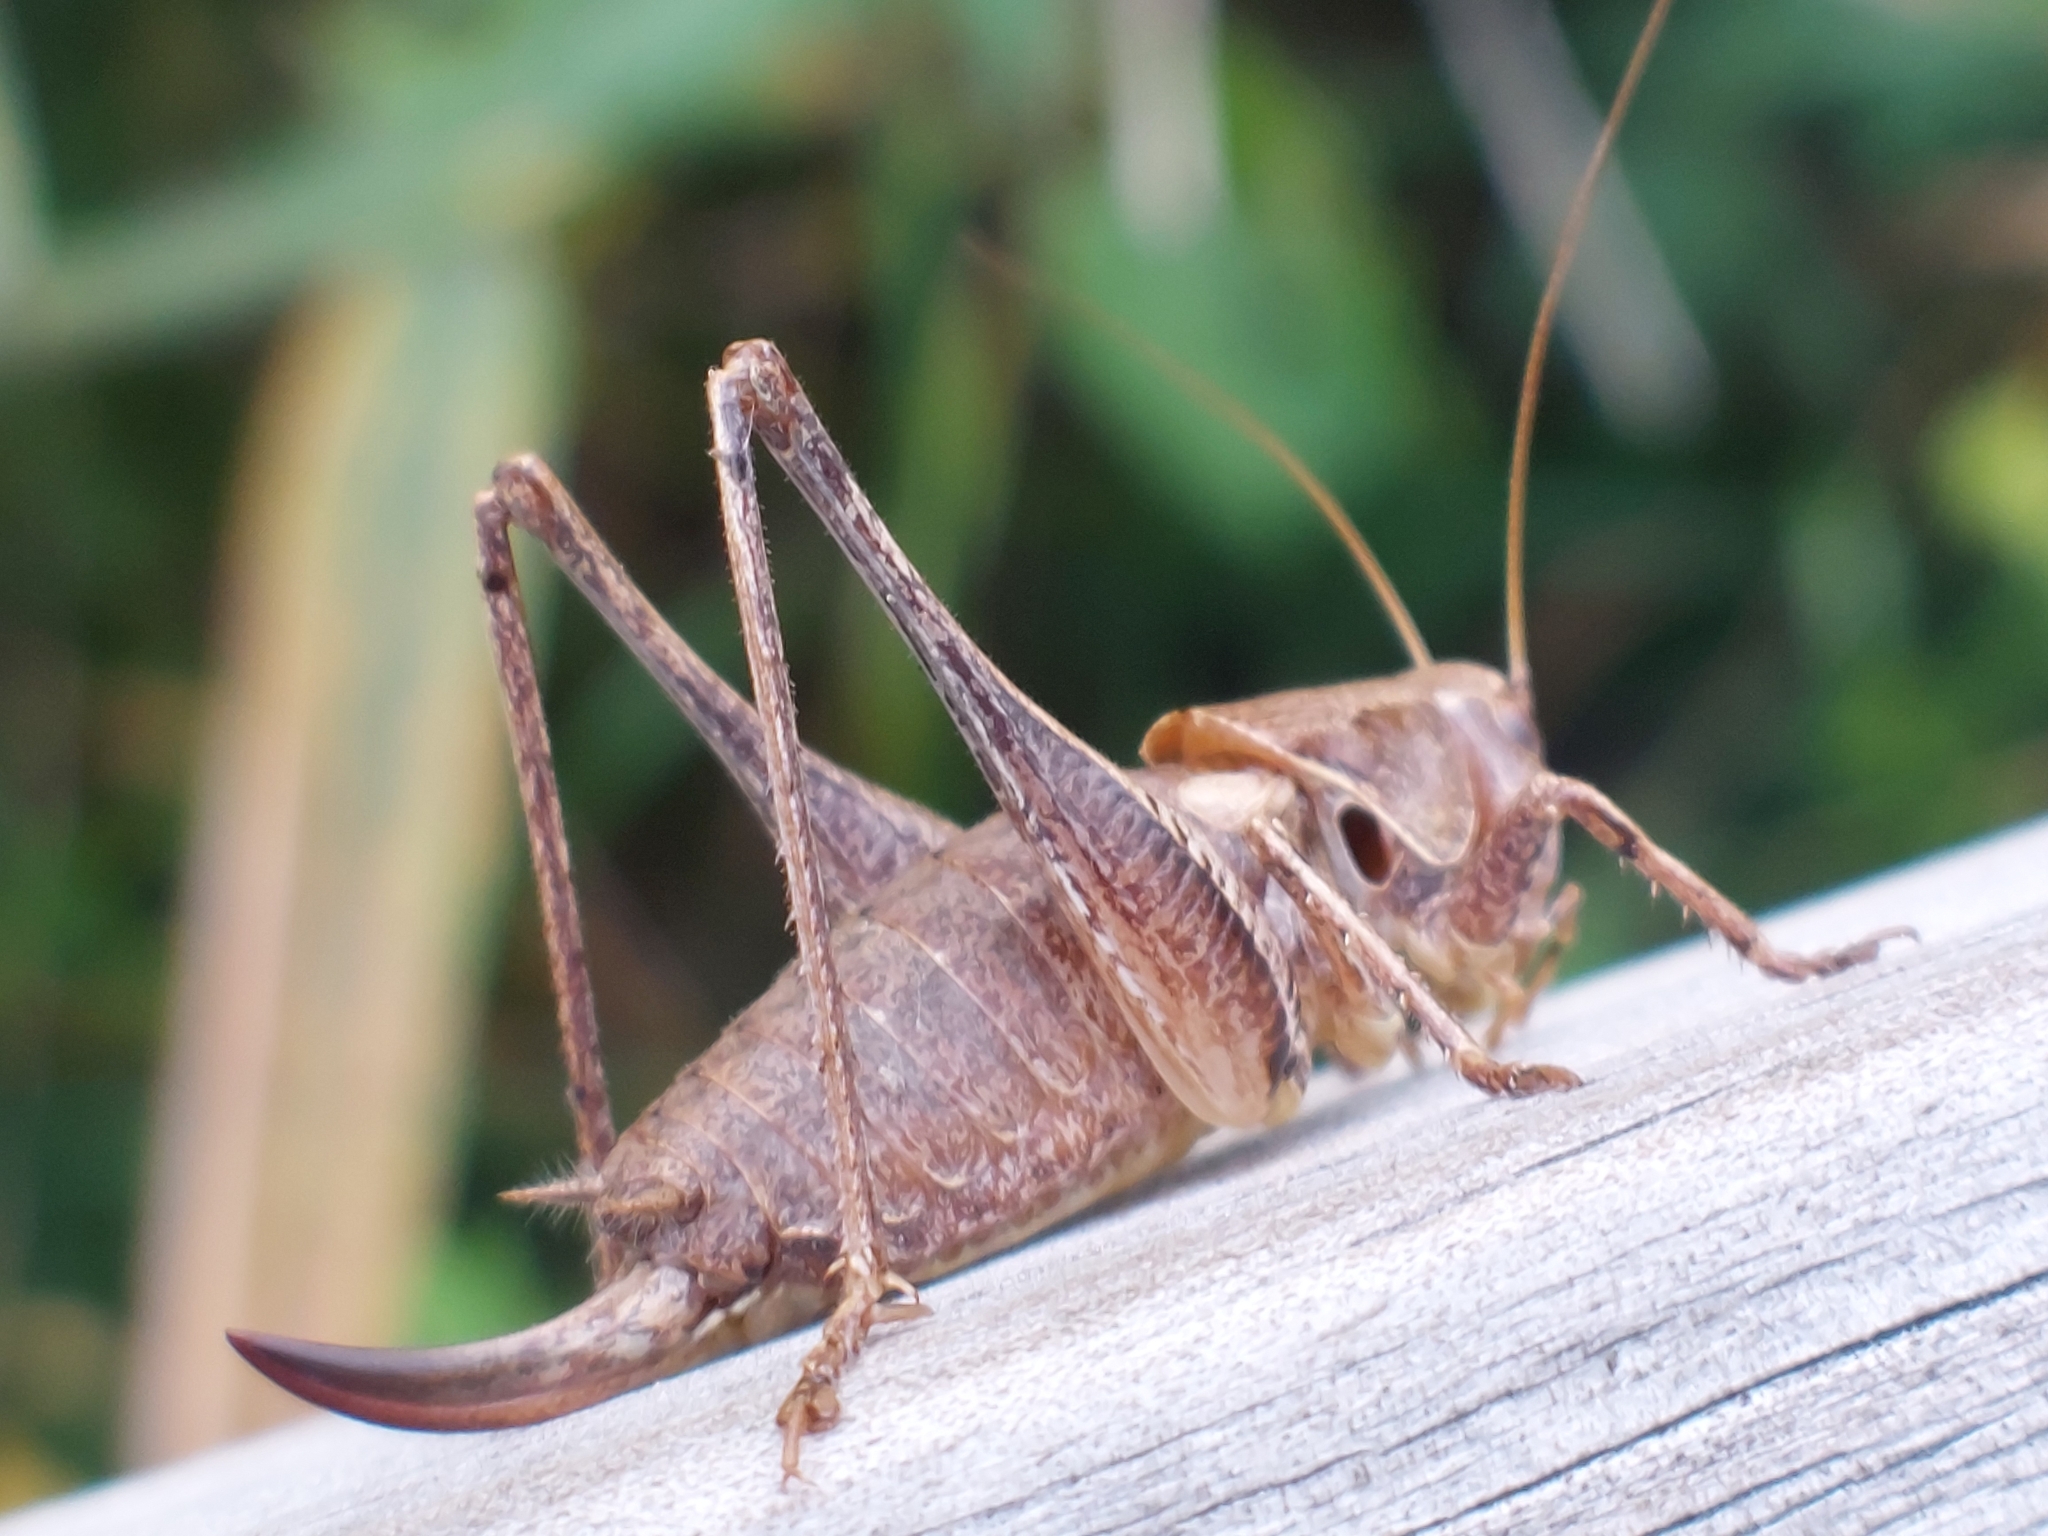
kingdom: Animalia
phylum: Arthropoda
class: Insecta
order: Orthoptera
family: Tettigoniidae
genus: Pholidoptera
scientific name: Pholidoptera griseoaptera
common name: Dark bush-cricket
